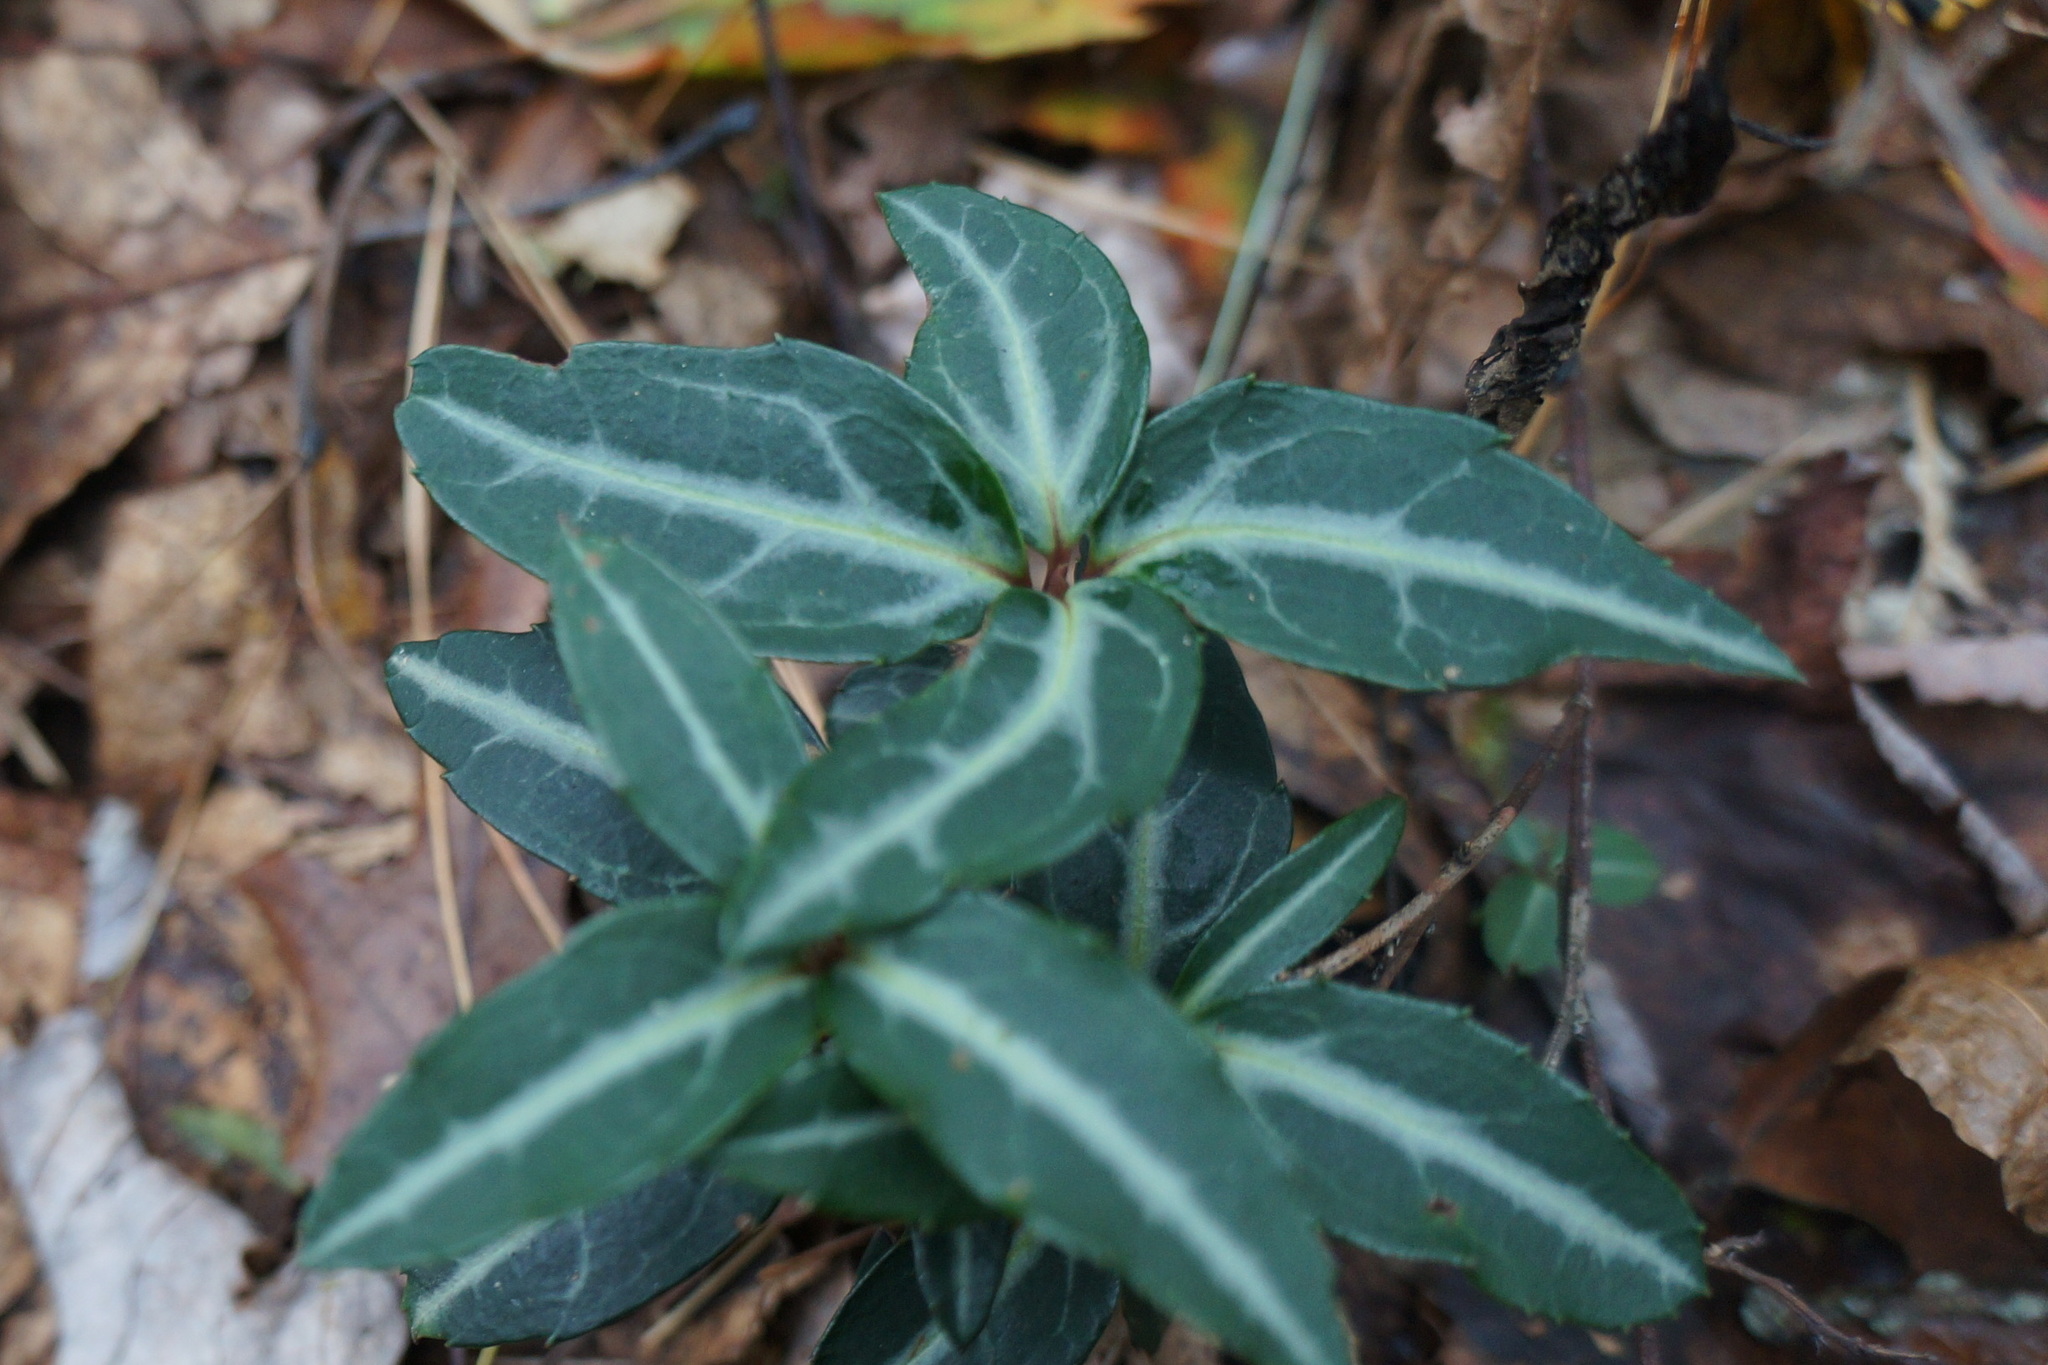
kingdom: Plantae
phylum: Tracheophyta
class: Magnoliopsida
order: Ericales
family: Ericaceae
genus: Chimaphila
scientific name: Chimaphila maculata
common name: Spotted pipsissewa
